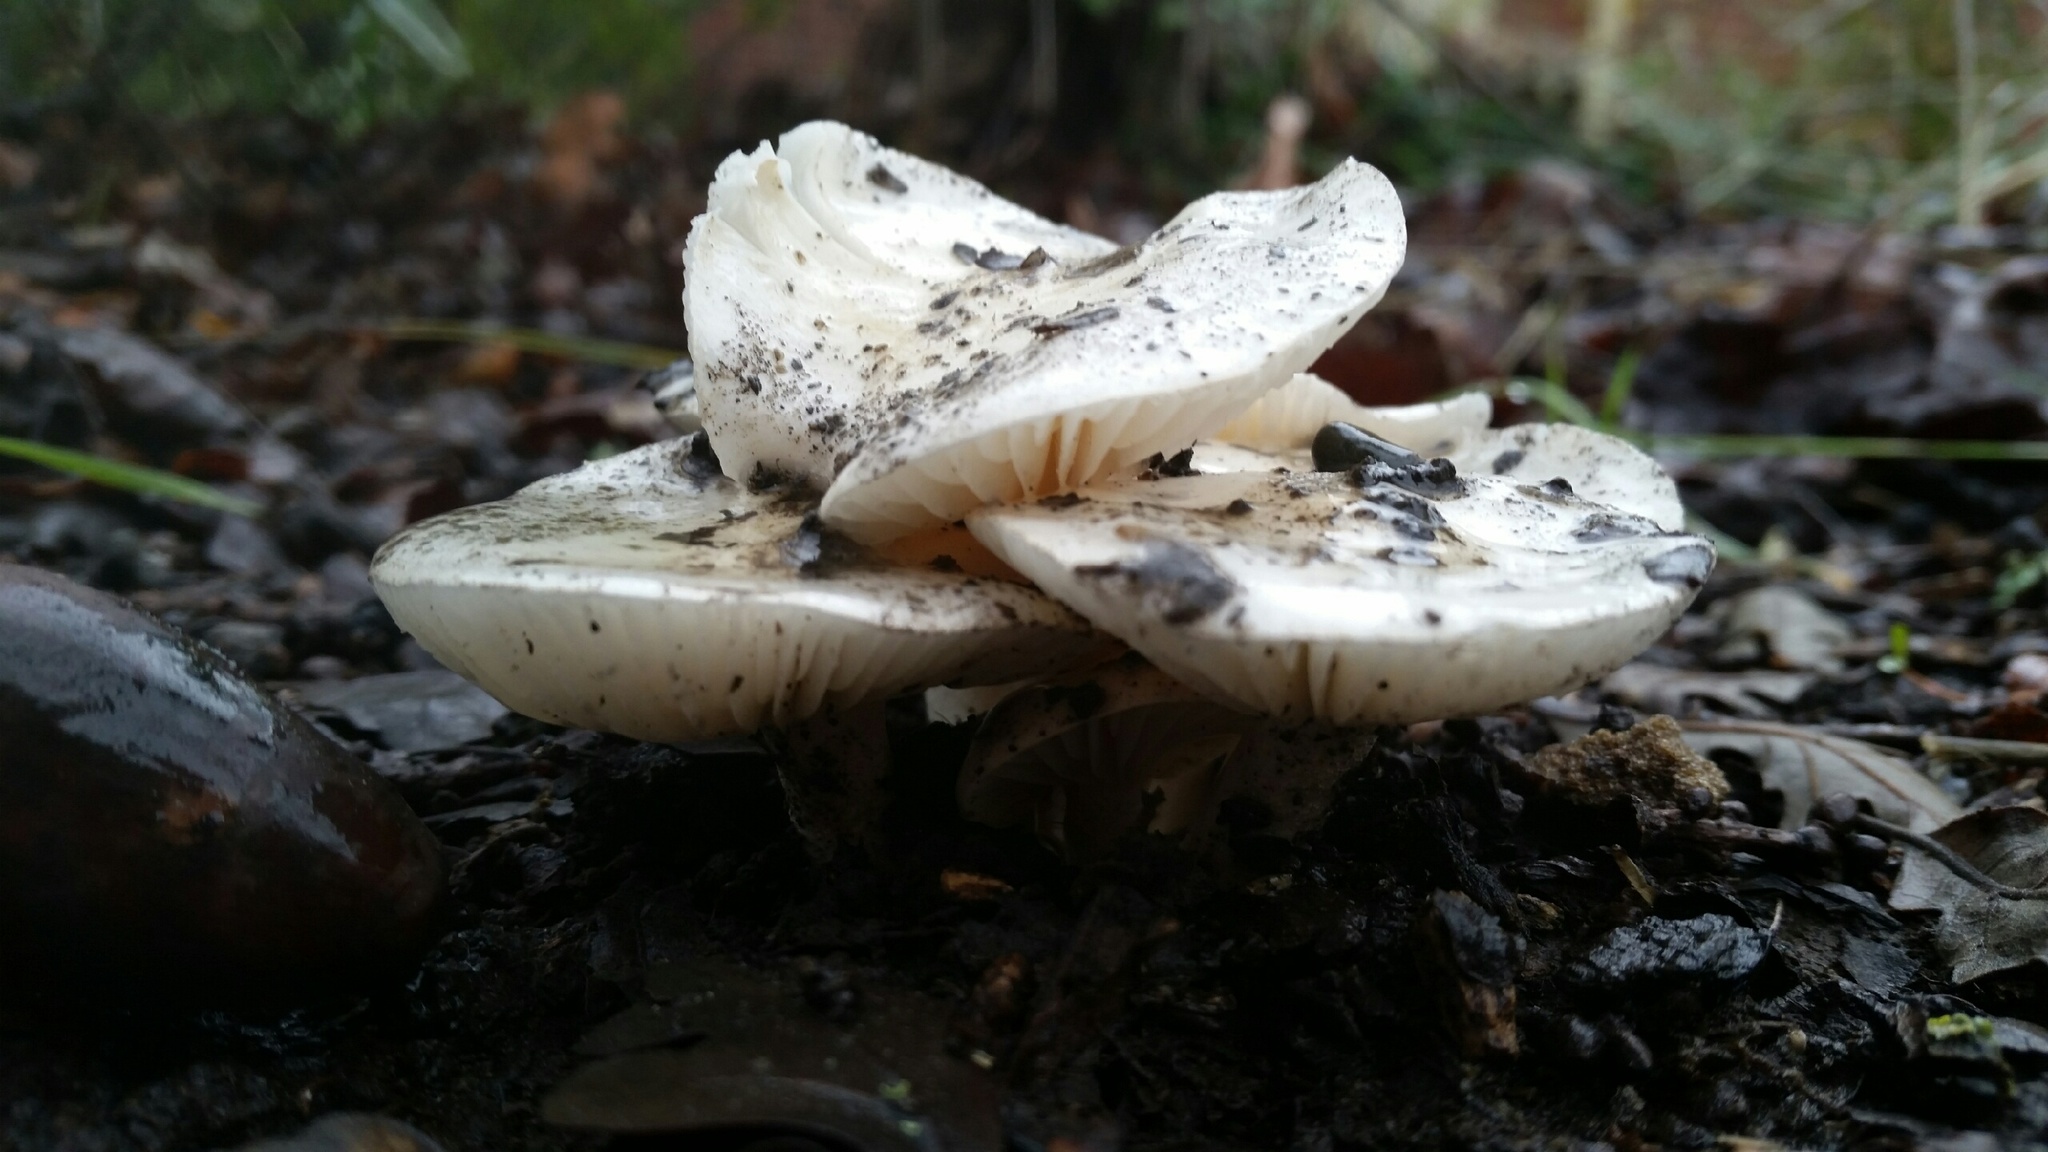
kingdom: Fungi
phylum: Basidiomycota
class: Agaricomycetes
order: Agaricales
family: Hygrophoraceae
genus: Hygrophorus
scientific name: Hygrophorus eburneus
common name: Ivory wax-cap
